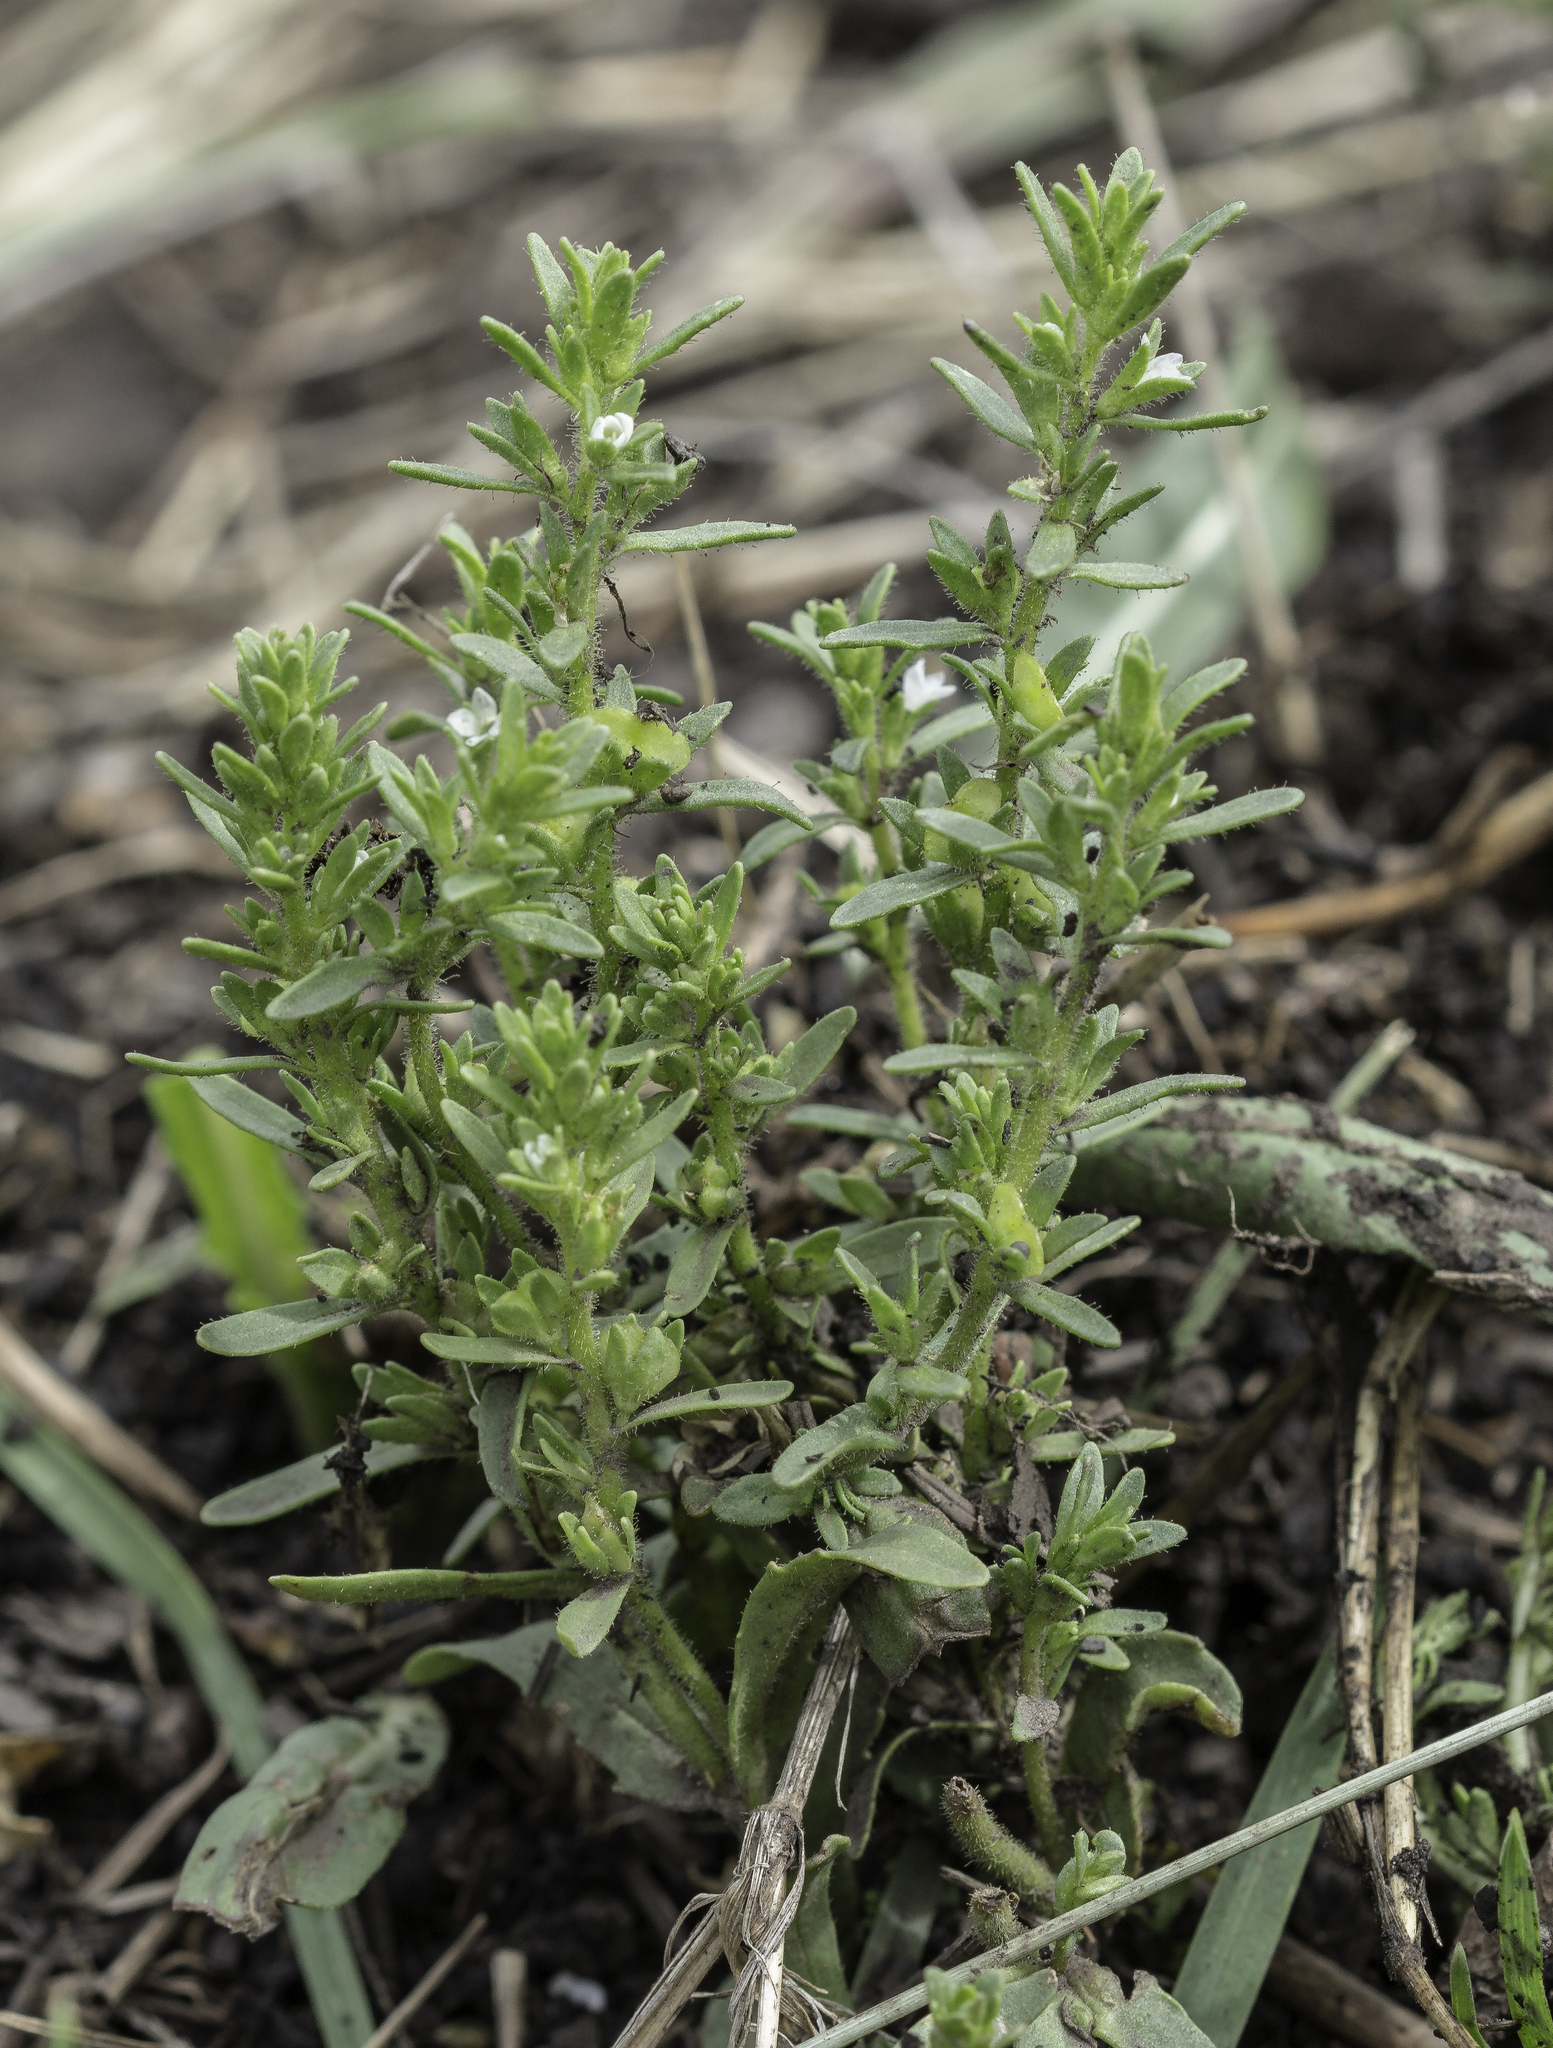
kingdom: Plantae
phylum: Tracheophyta
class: Magnoliopsida
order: Lamiales
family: Plantaginaceae
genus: Veronica
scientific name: Veronica peregrina
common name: Neckweed
